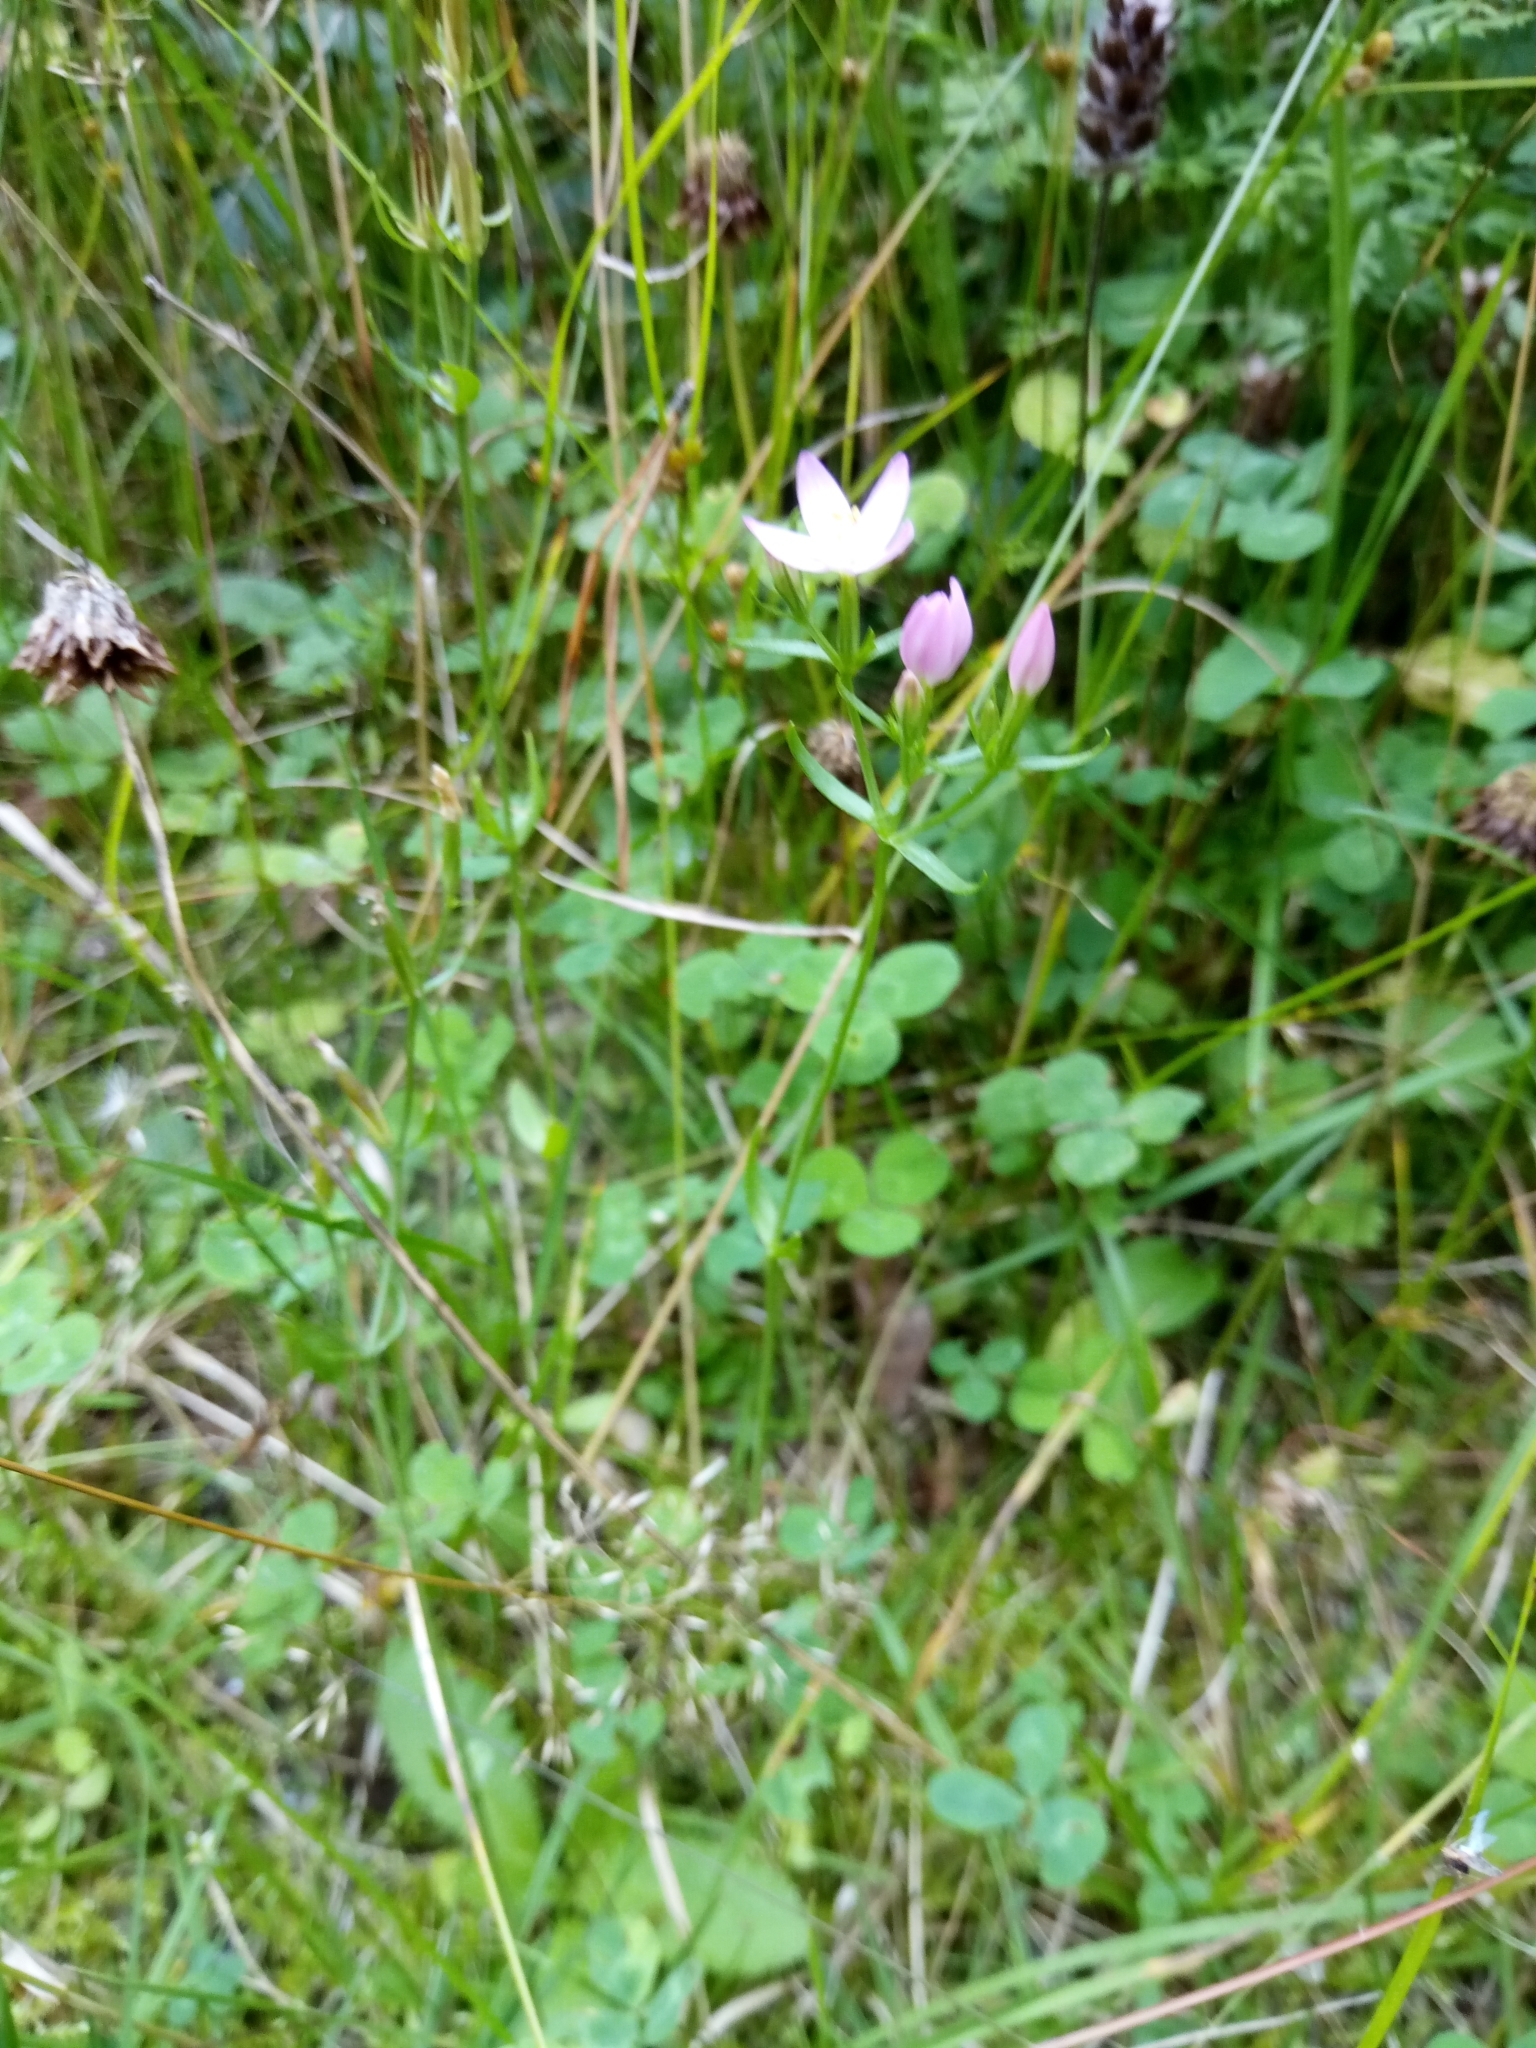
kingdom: Plantae
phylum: Tracheophyta
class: Magnoliopsida
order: Gentianales
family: Gentianaceae
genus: Centaurium
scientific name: Centaurium erythraea
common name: Common centaury
